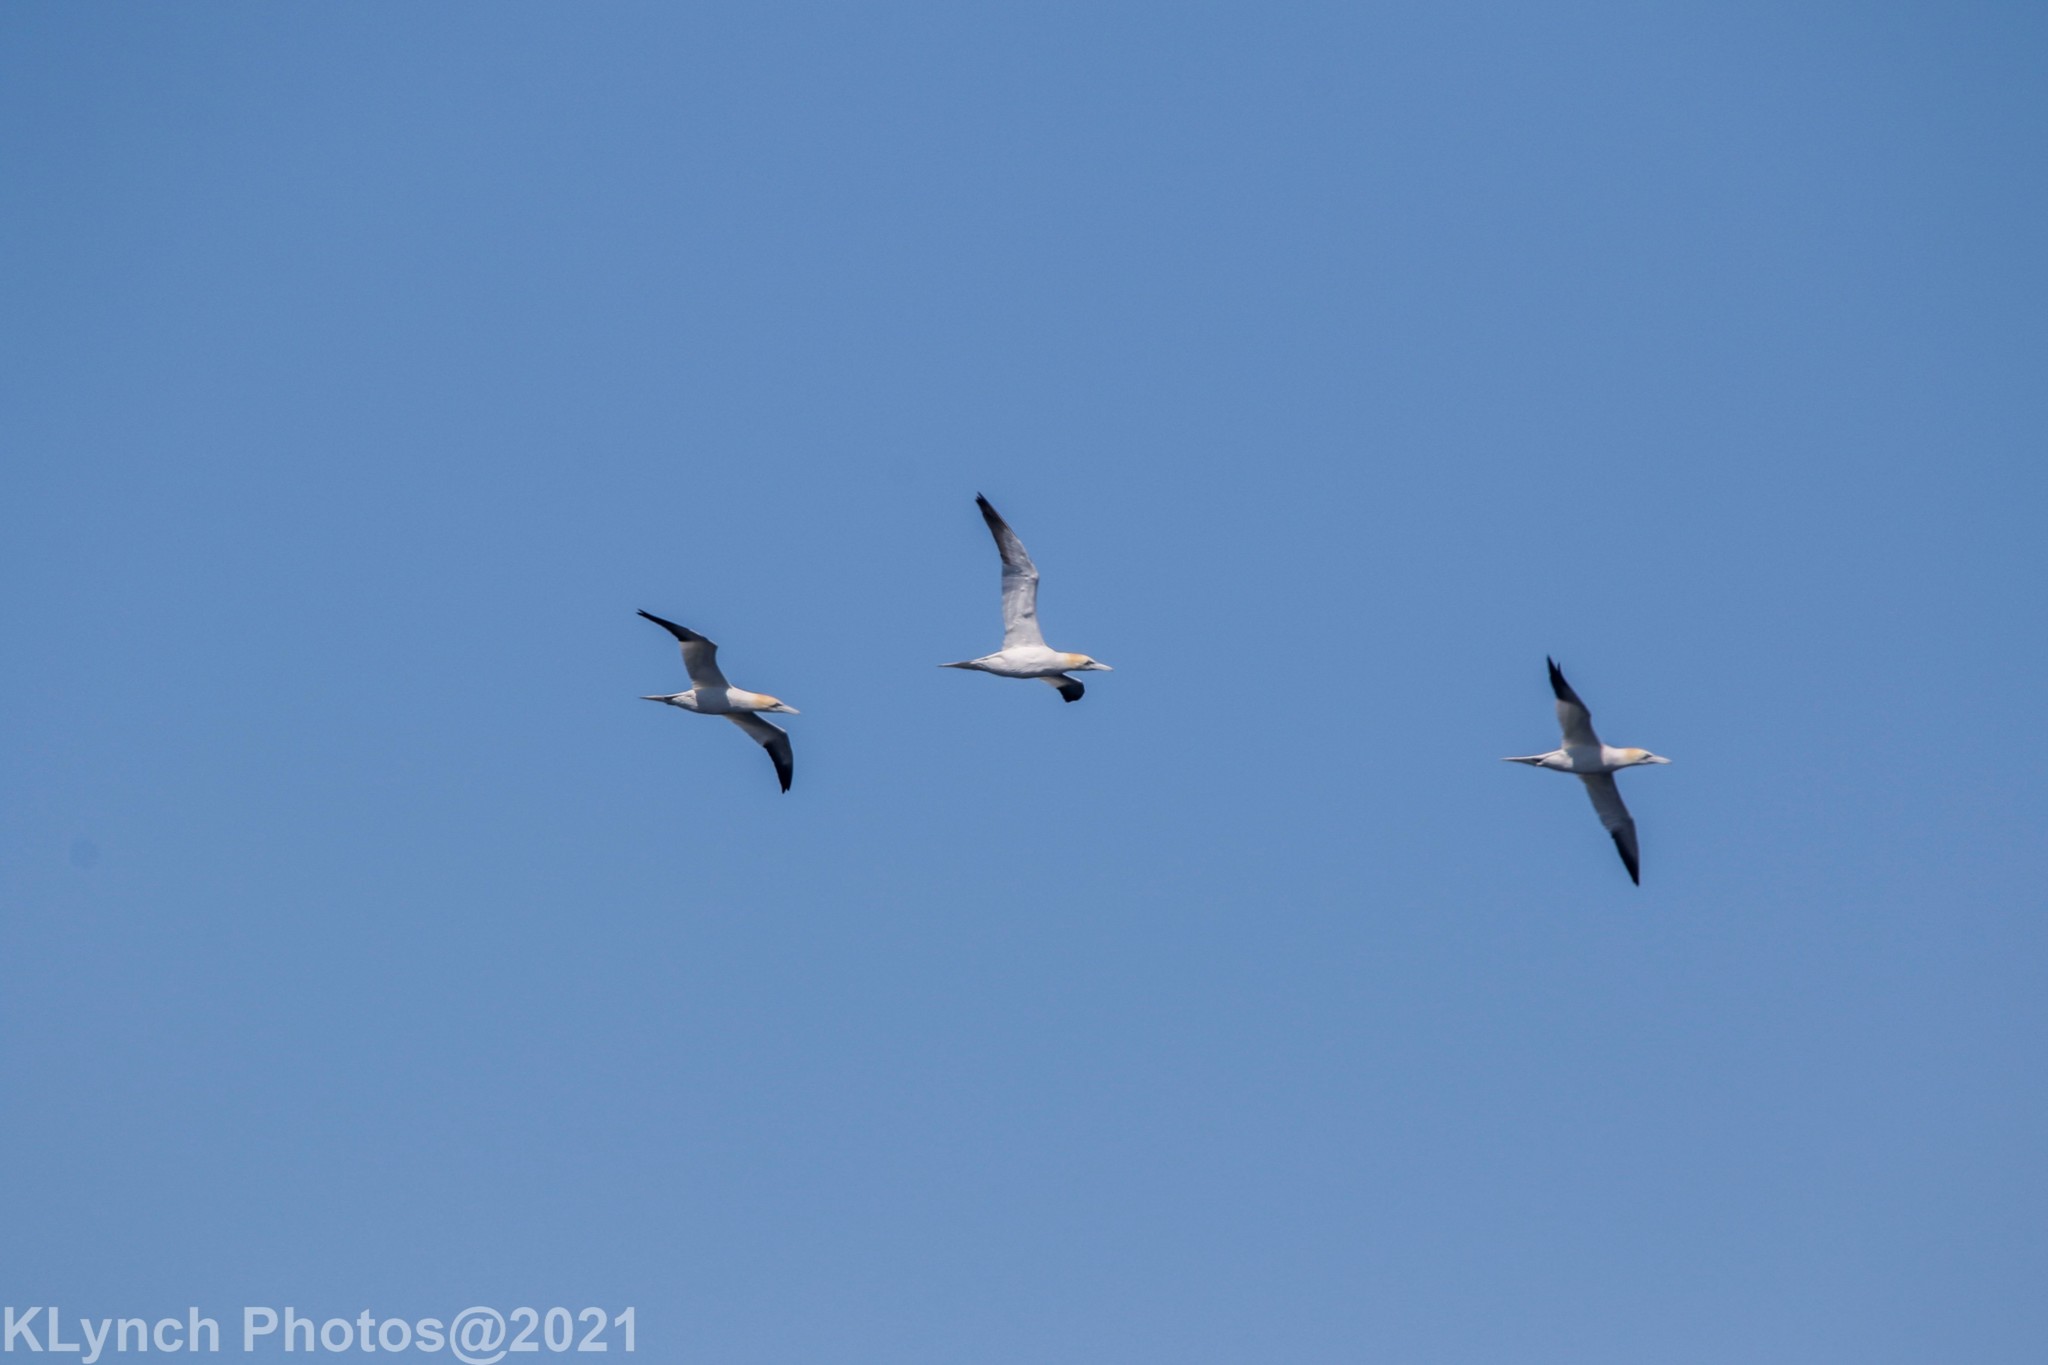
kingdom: Animalia
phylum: Chordata
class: Aves
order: Suliformes
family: Sulidae
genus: Morus
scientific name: Morus bassanus
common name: Northern gannet
